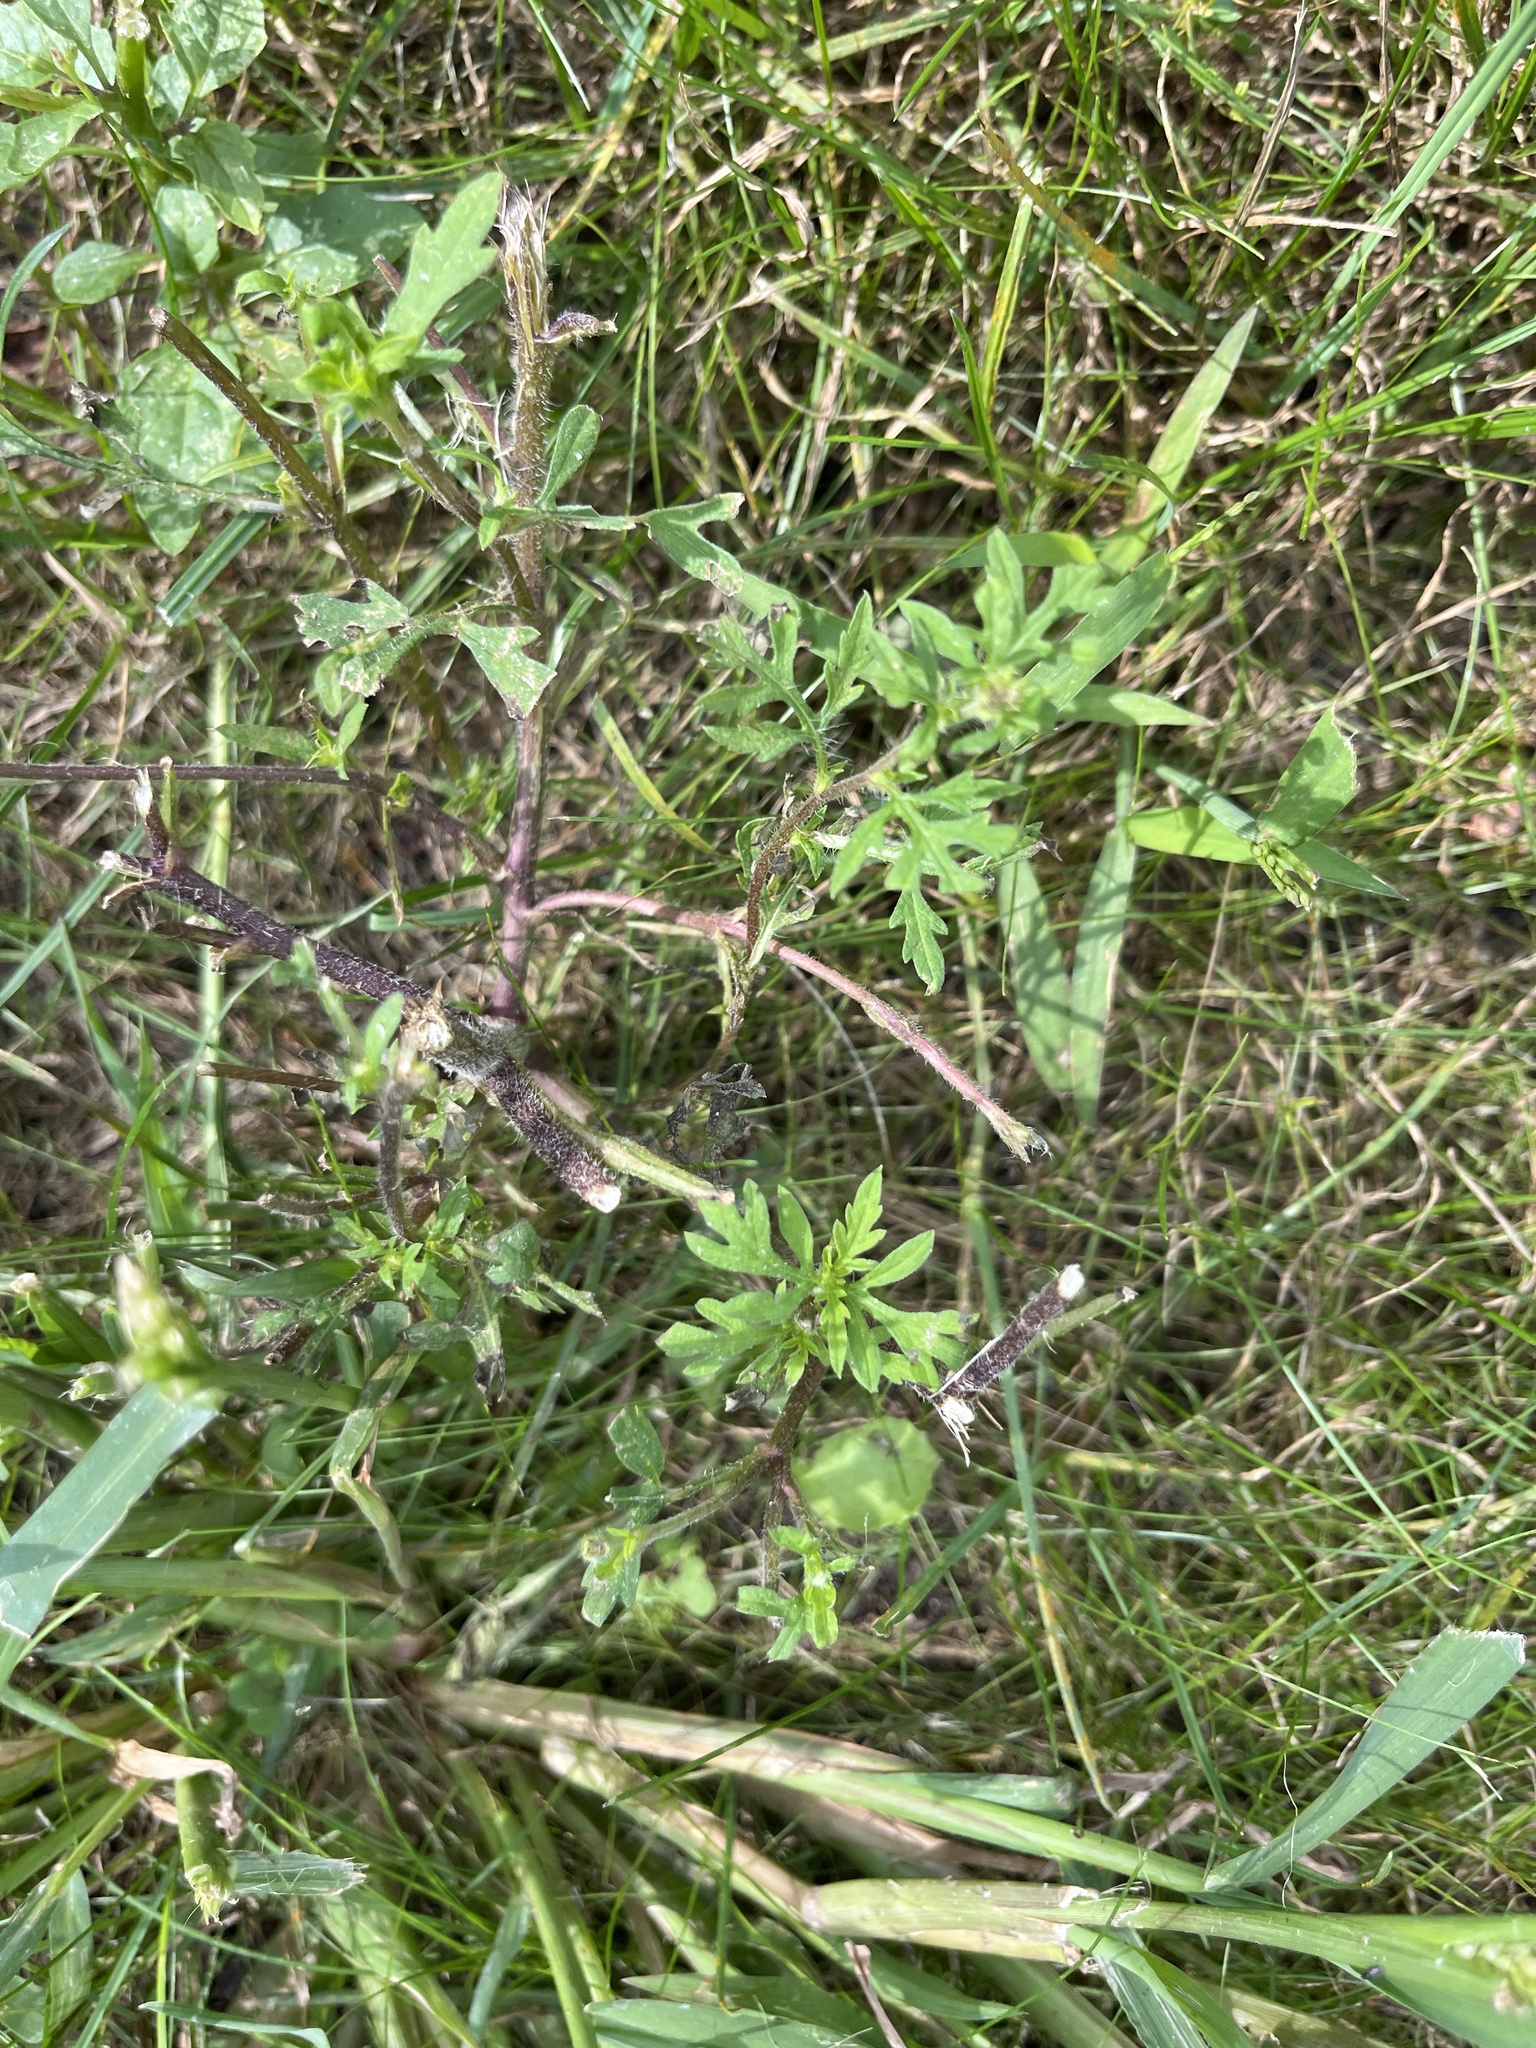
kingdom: Plantae
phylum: Tracheophyta
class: Magnoliopsida
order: Asterales
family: Asteraceae
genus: Ambrosia
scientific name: Ambrosia artemisiifolia
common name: Annual ragweed
